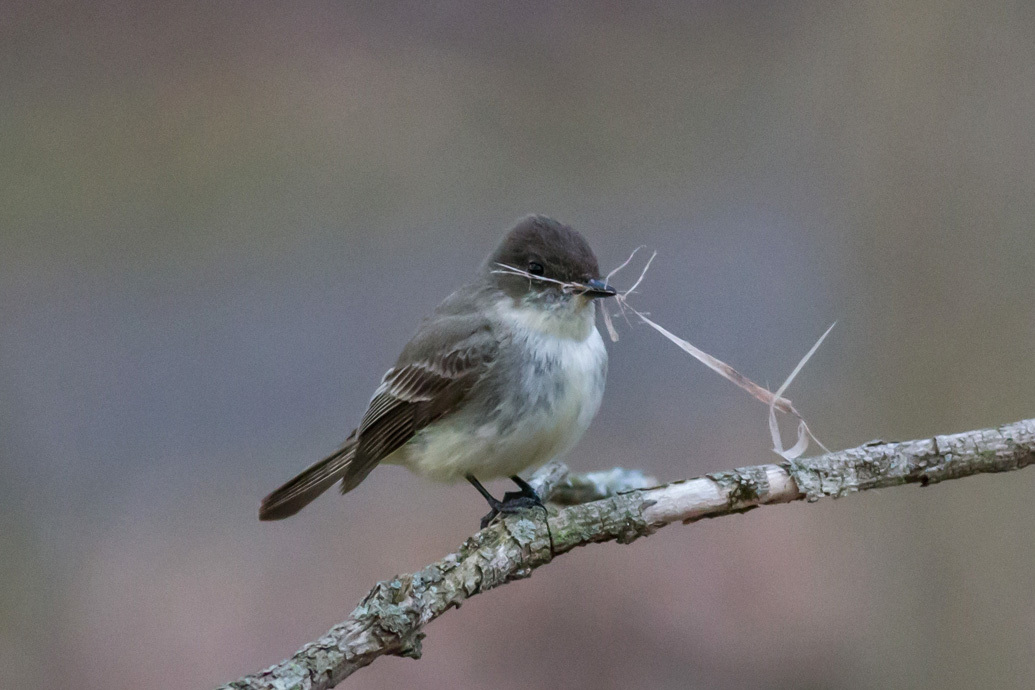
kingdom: Animalia
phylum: Chordata
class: Aves
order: Passeriformes
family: Tyrannidae
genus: Sayornis
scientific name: Sayornis phoebe
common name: Eastern phoebe
